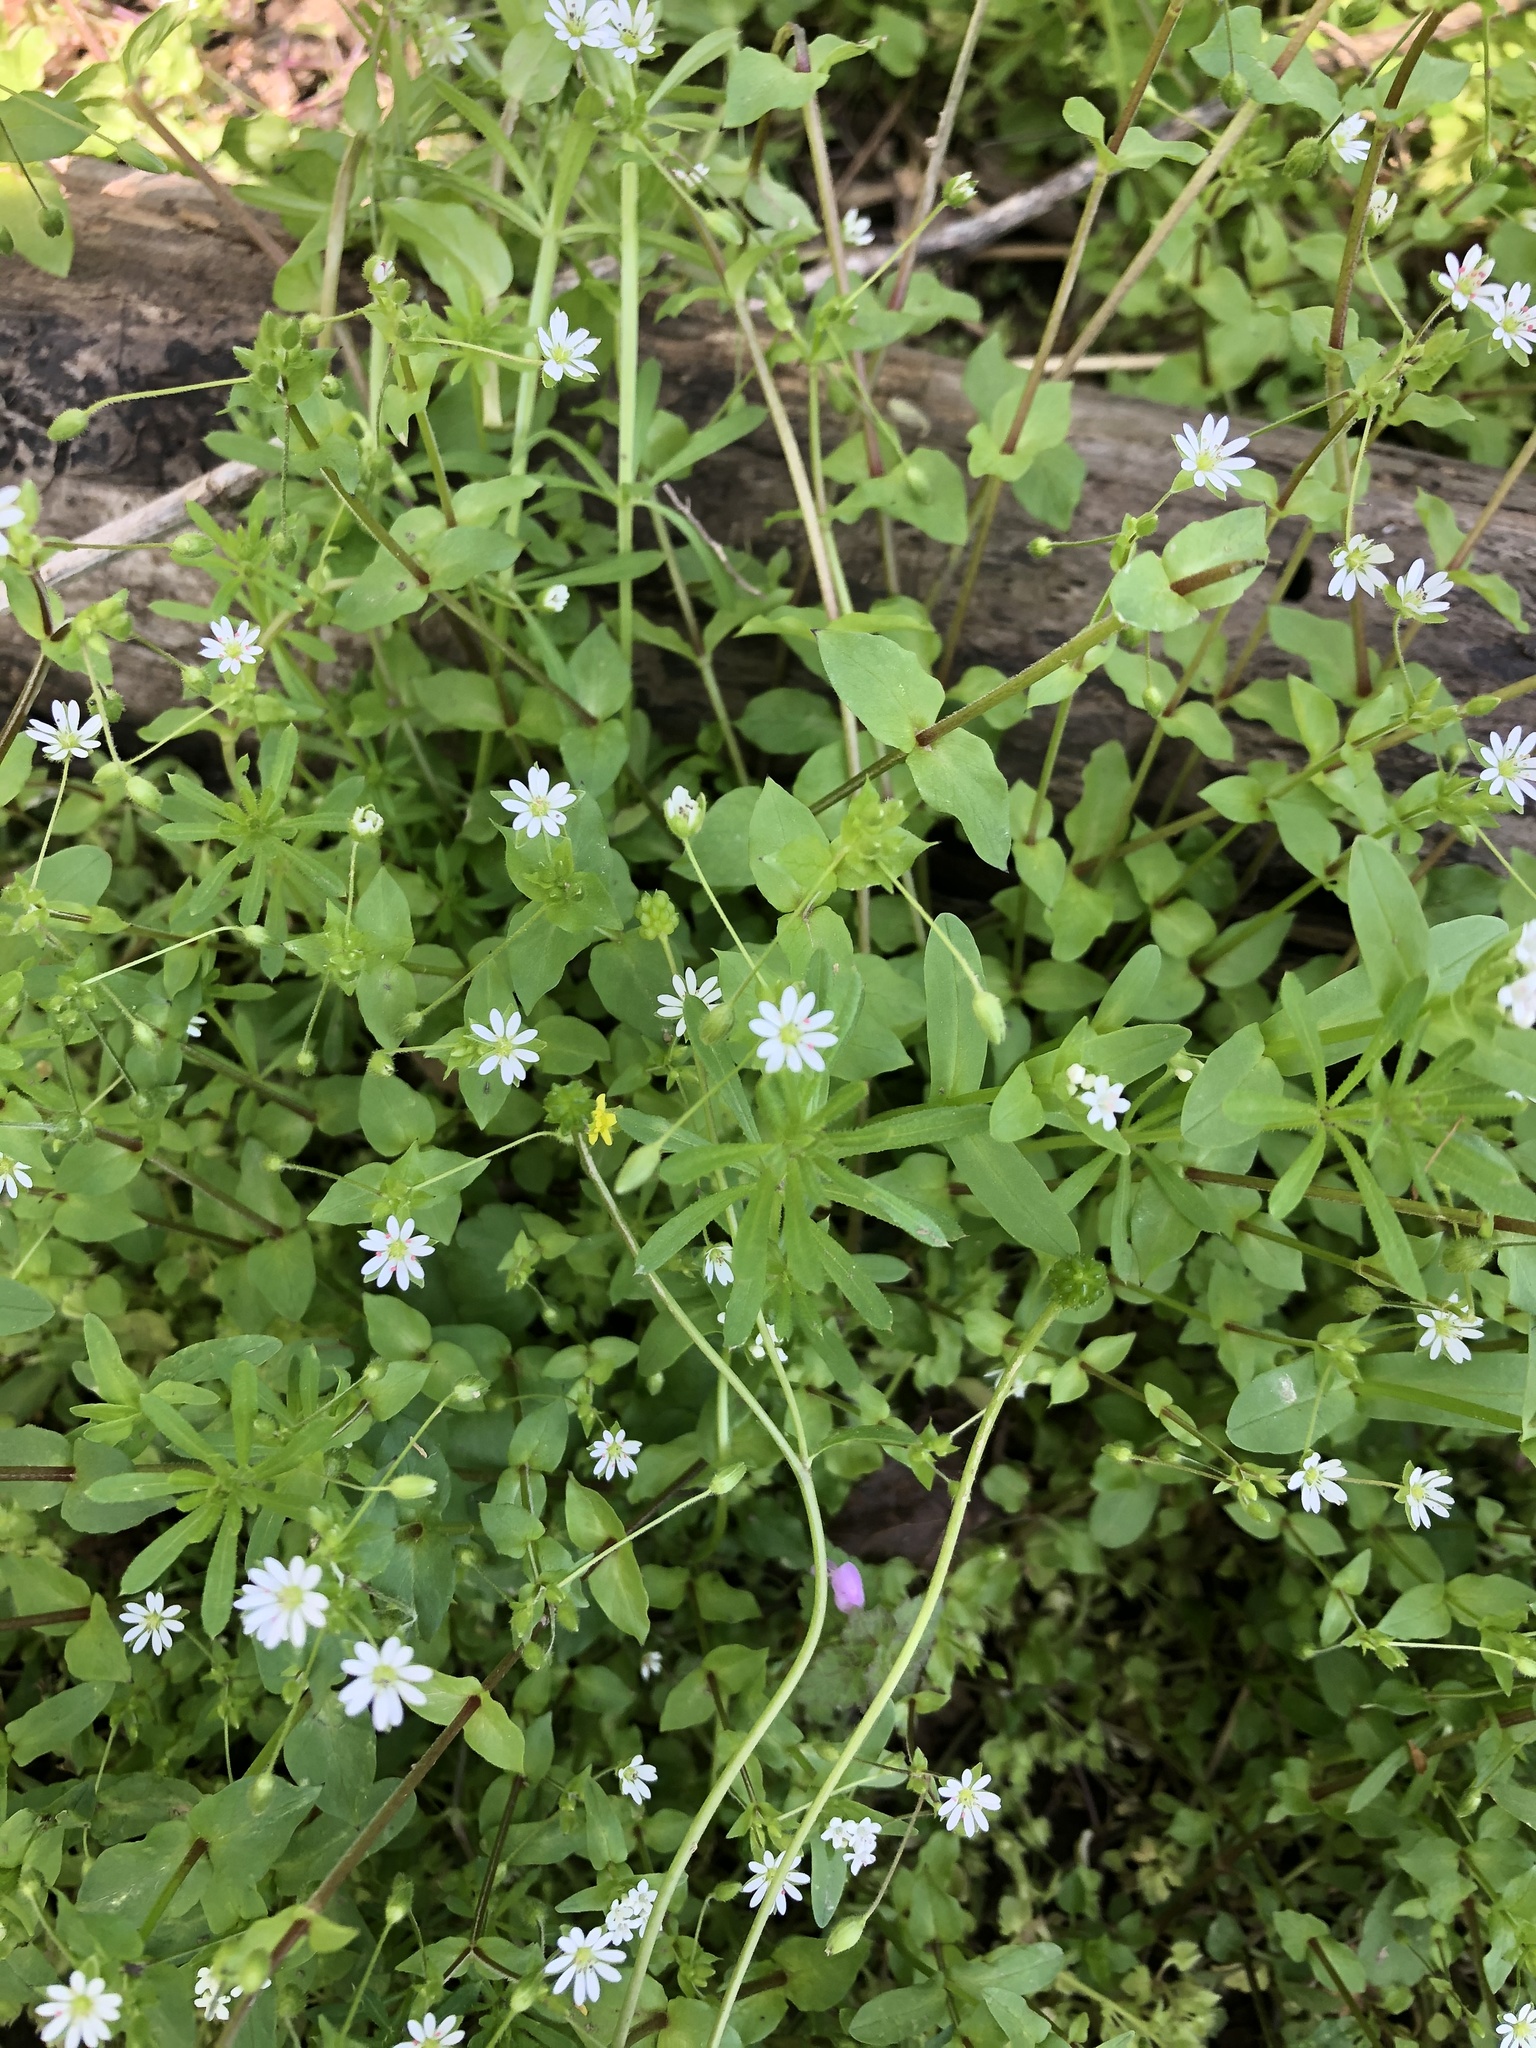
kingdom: Plantae
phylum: Tracheophyta
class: Magnoliopsida
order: Caryophyllales
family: Caryophyllaceae
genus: Stellaria
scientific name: Stellaria media
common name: Common chickweed
